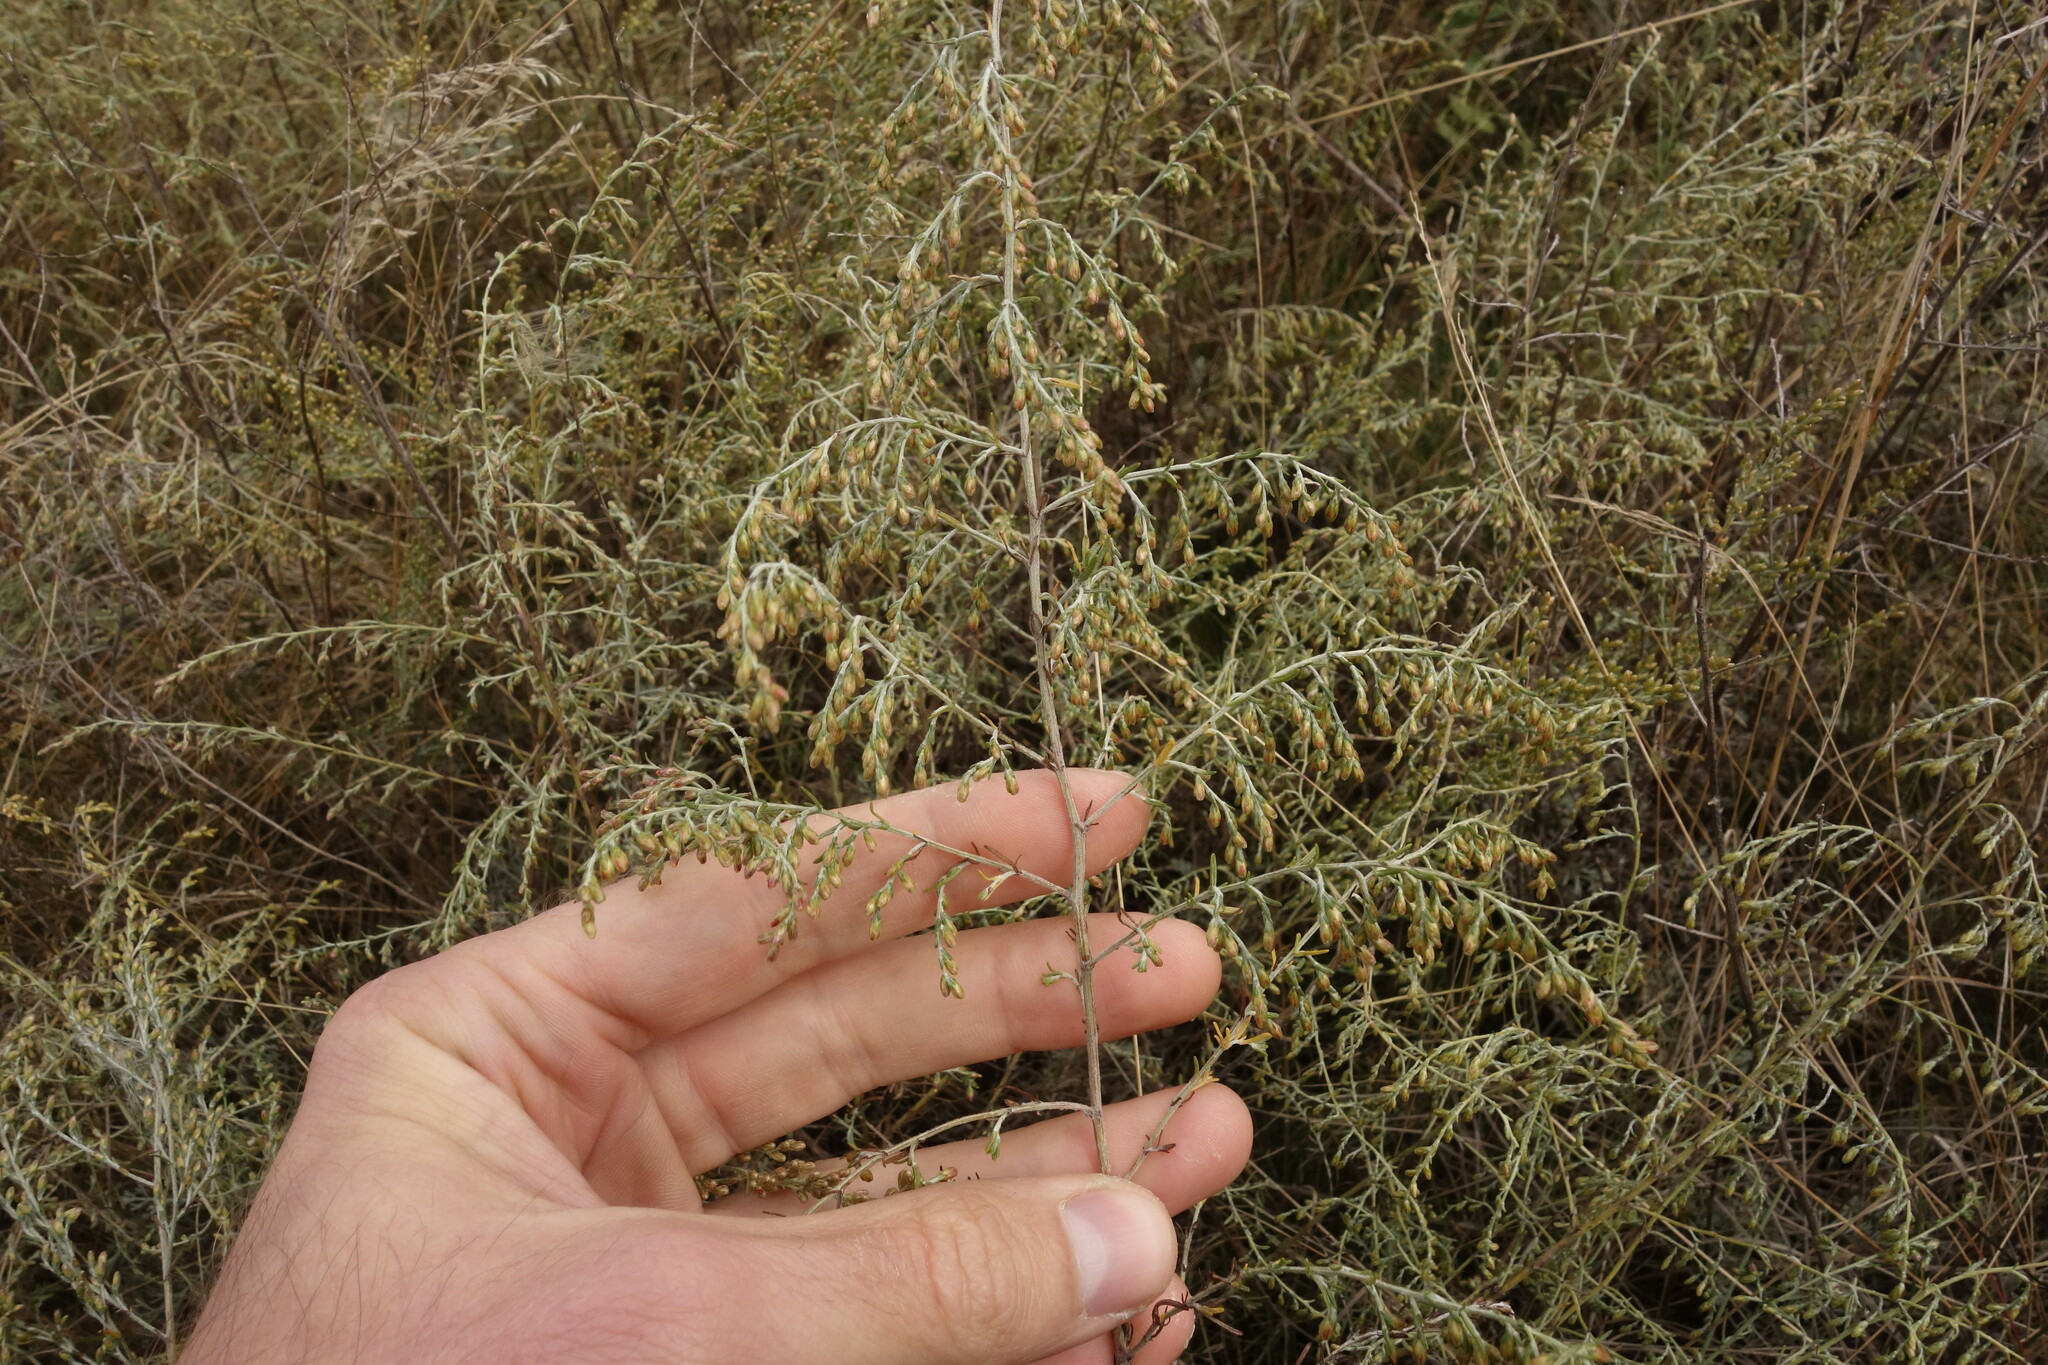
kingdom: Plantae
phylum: Tracheophyta
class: Magnoliopsida
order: Asterales
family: Asteraceae
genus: Artemisia
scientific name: Artemisia santonicum
